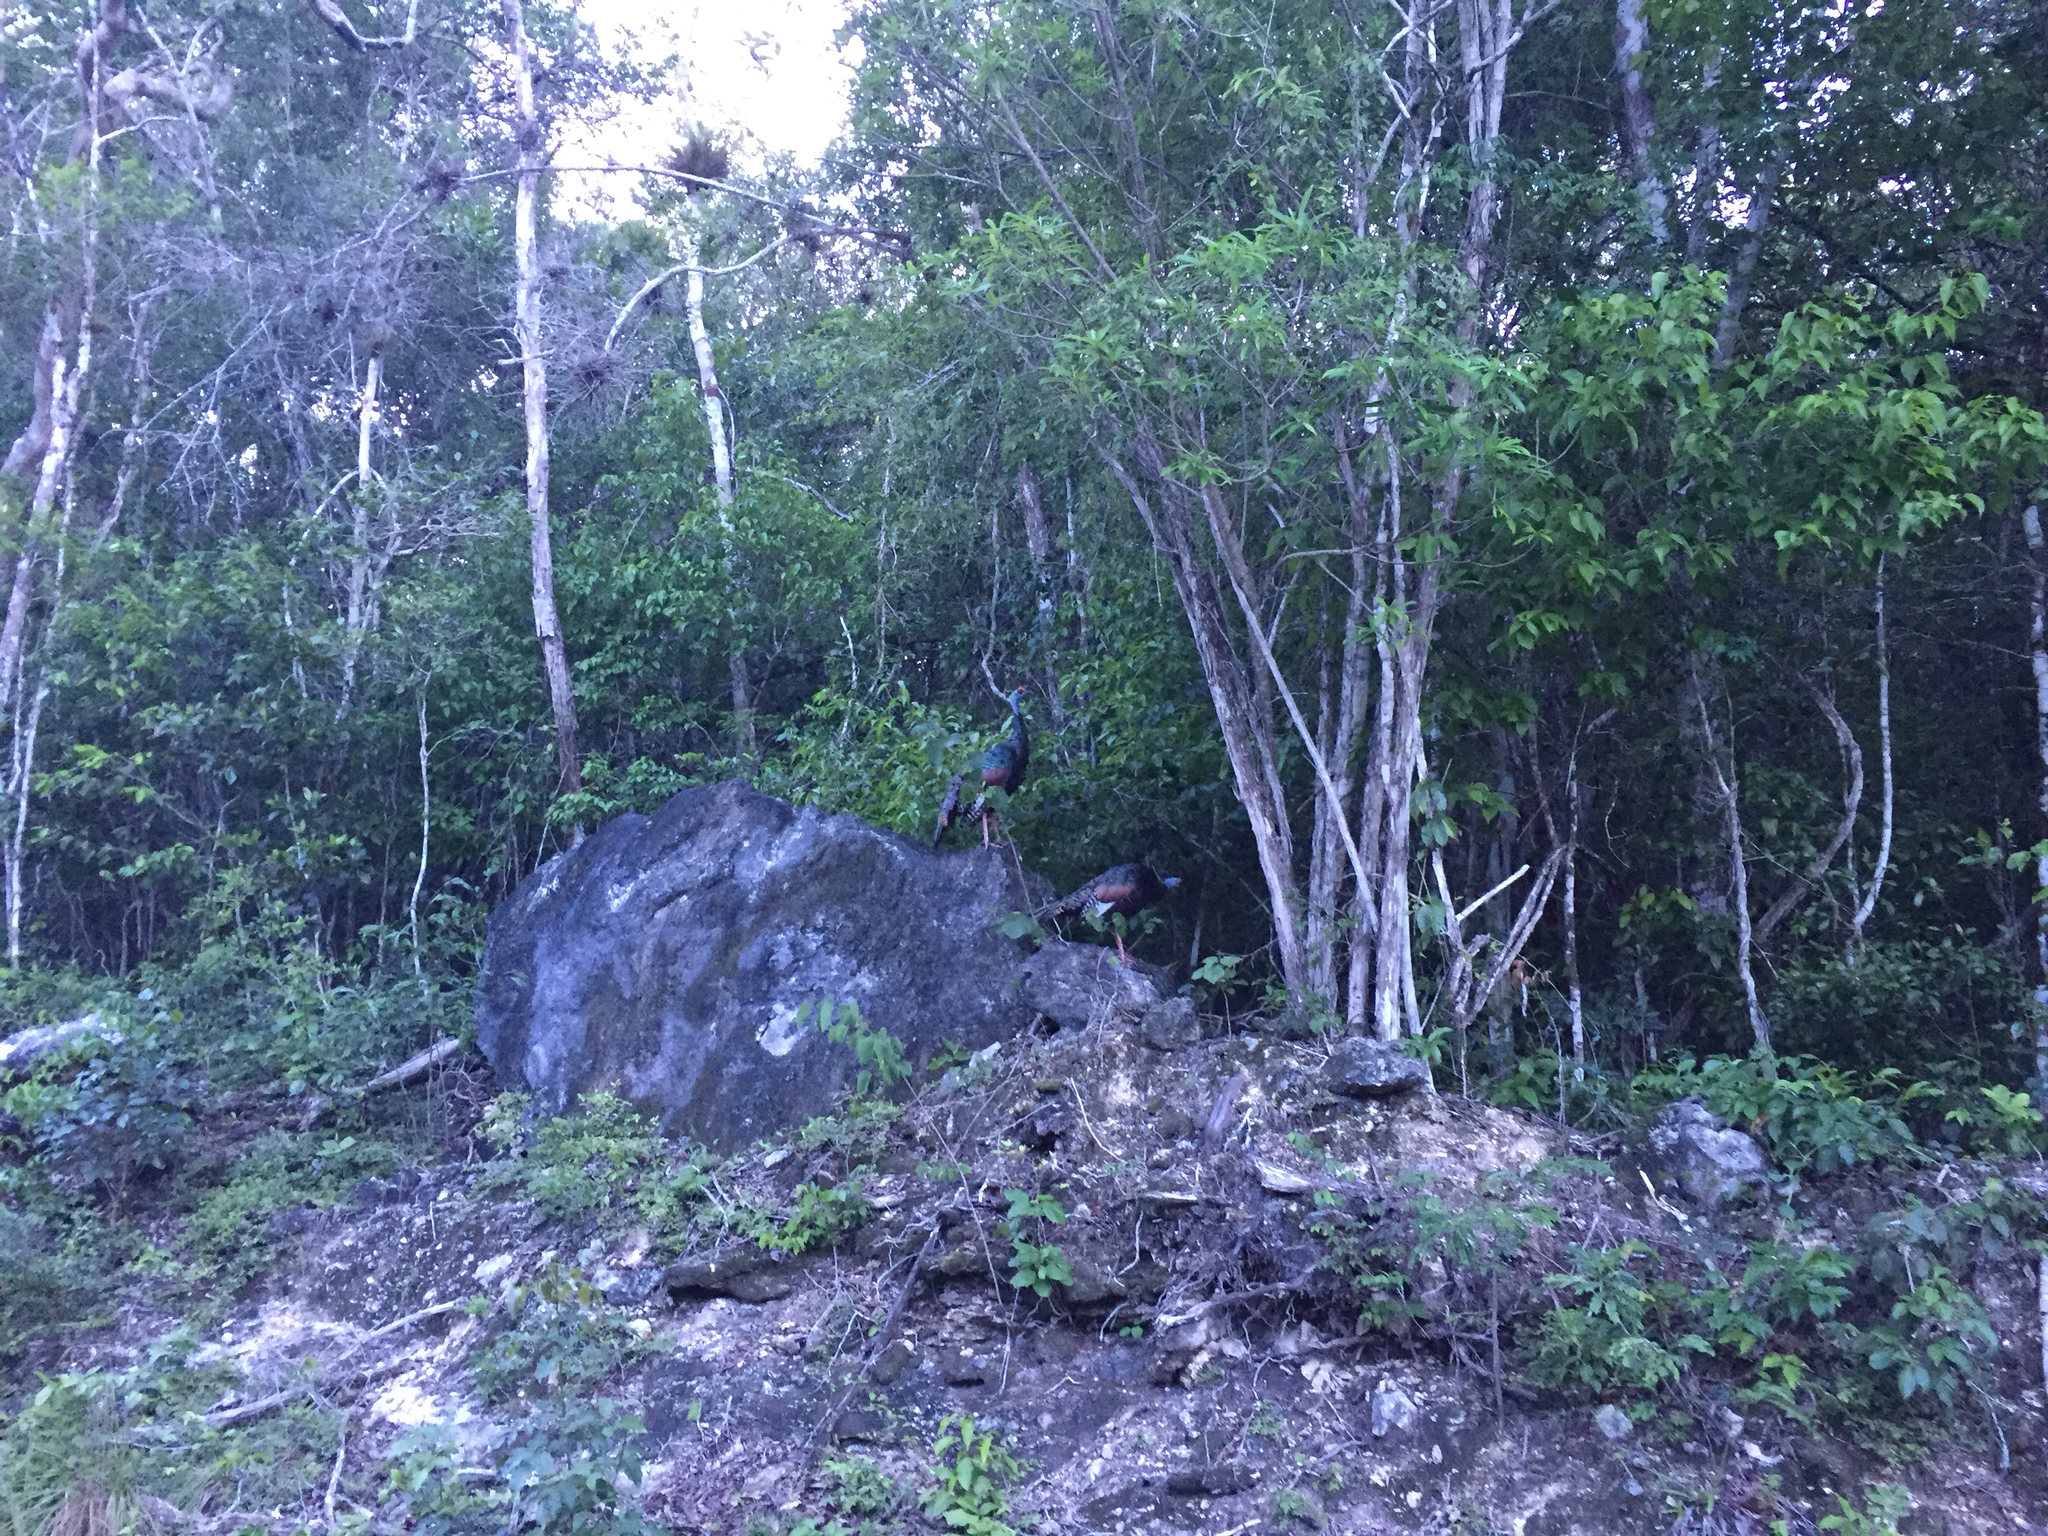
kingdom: Animalia
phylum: Chordata
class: Aves
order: Galliformes
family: Phasianidae
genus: Meleagris
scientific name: Meleagris ocellata
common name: Ocellated turkey
